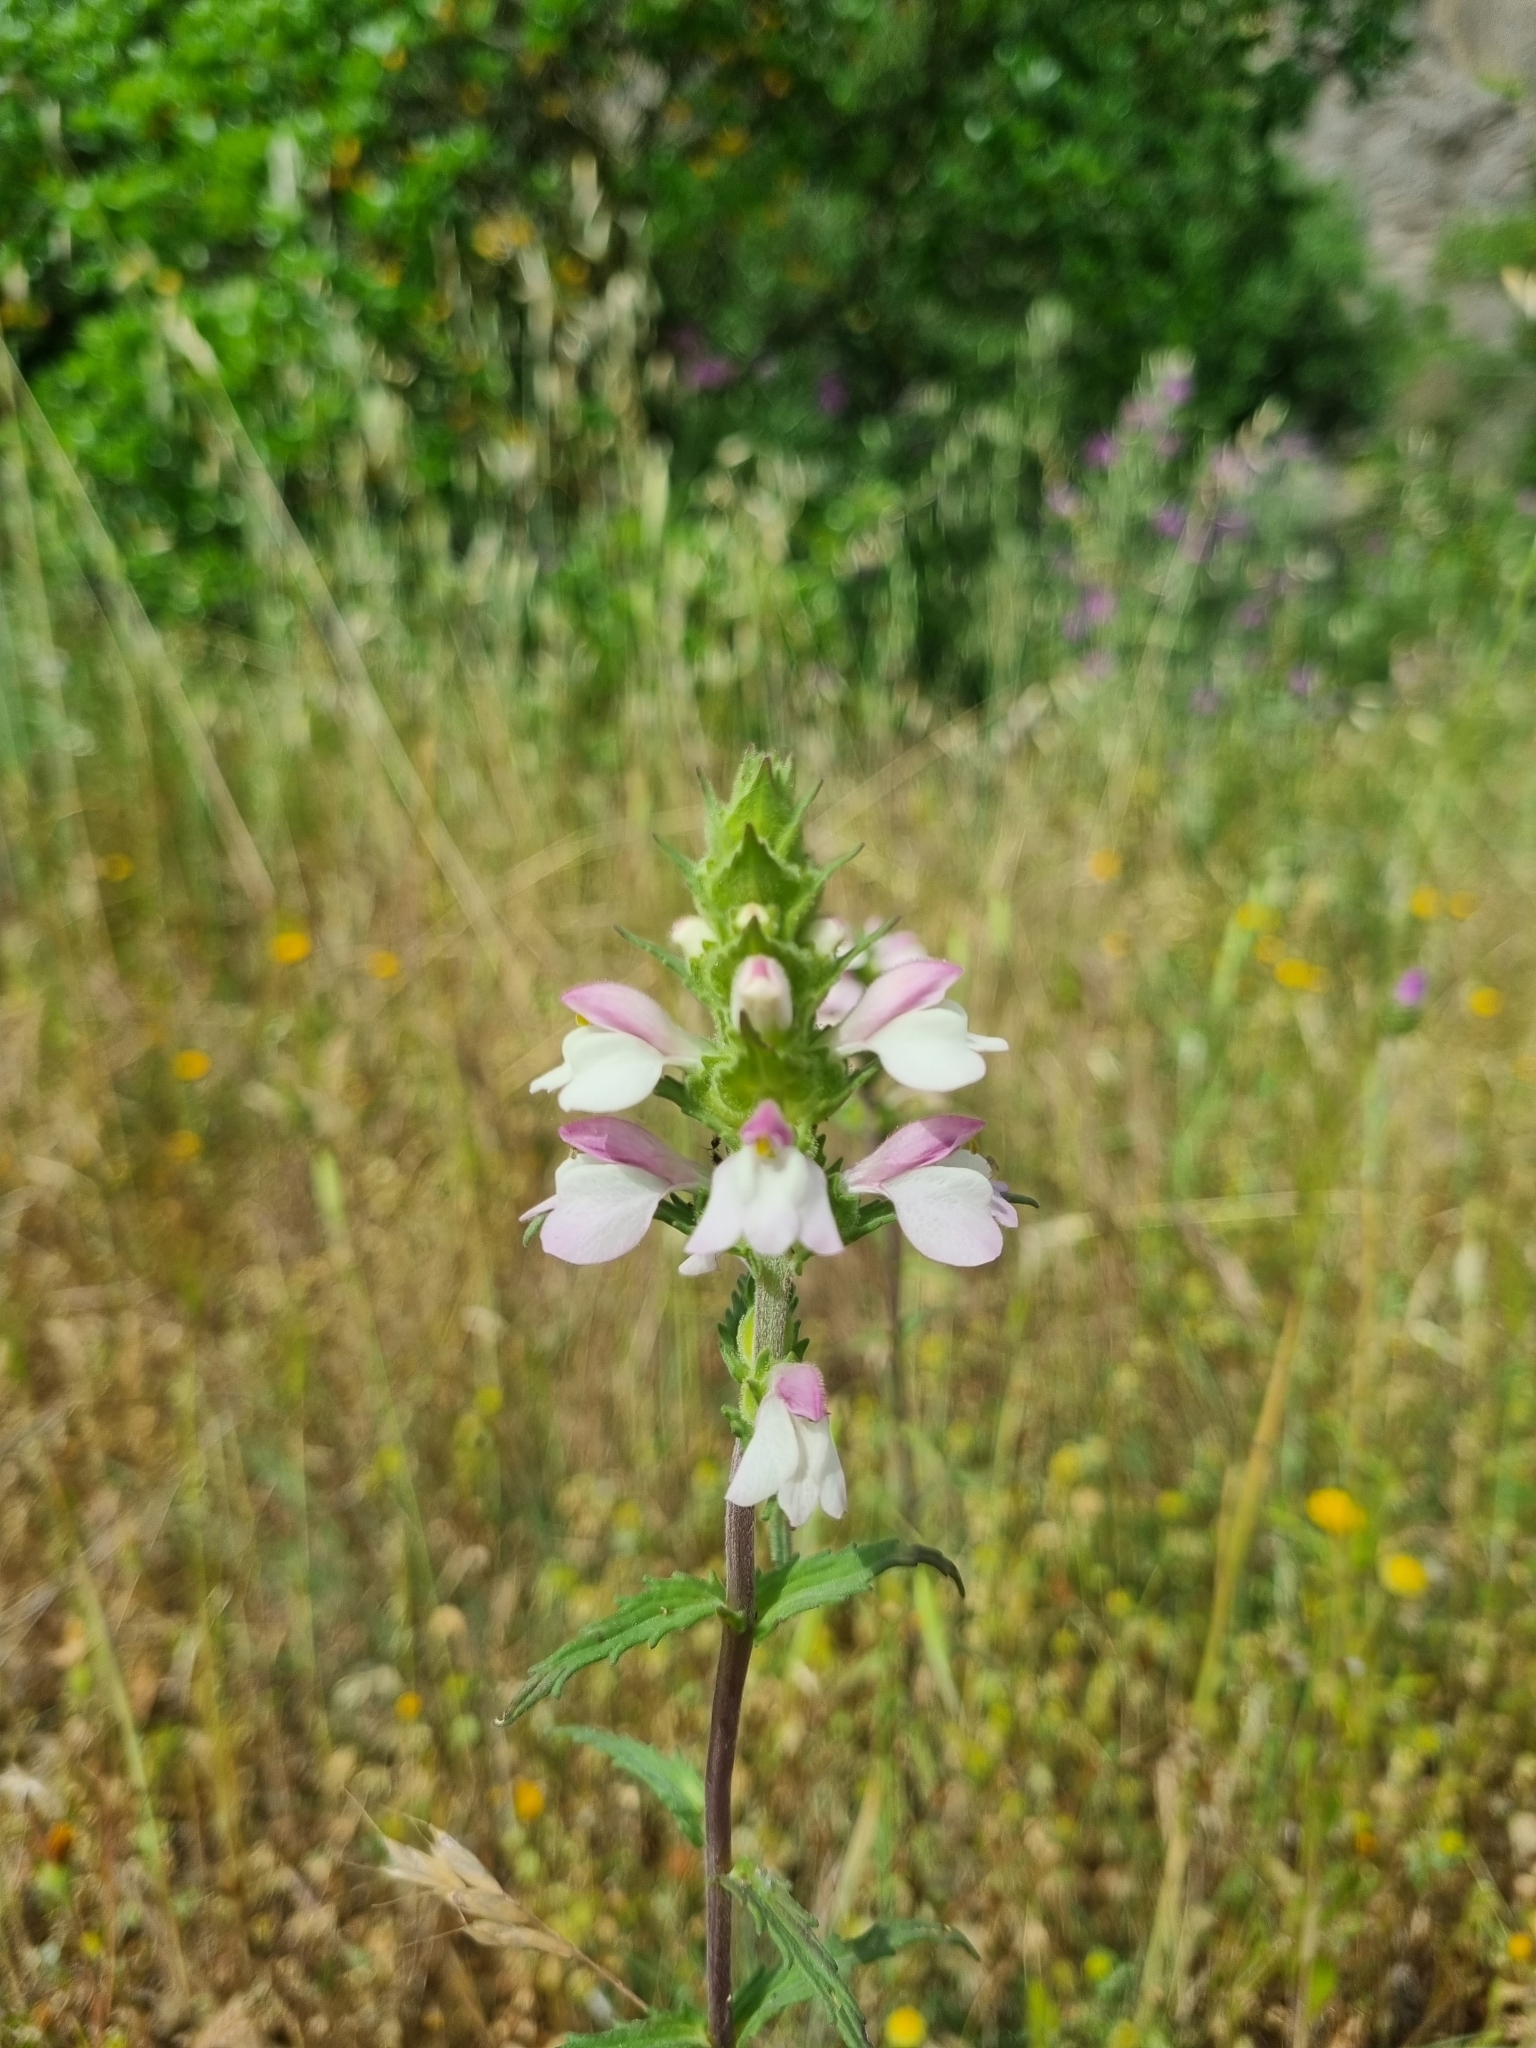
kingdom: Plantae
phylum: Tracheophyta
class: Magnoliopsida
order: Lamiales
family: Orobanchaceae
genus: Bellardia
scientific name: Bellardia trixago
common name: Mediterranean lineseed
